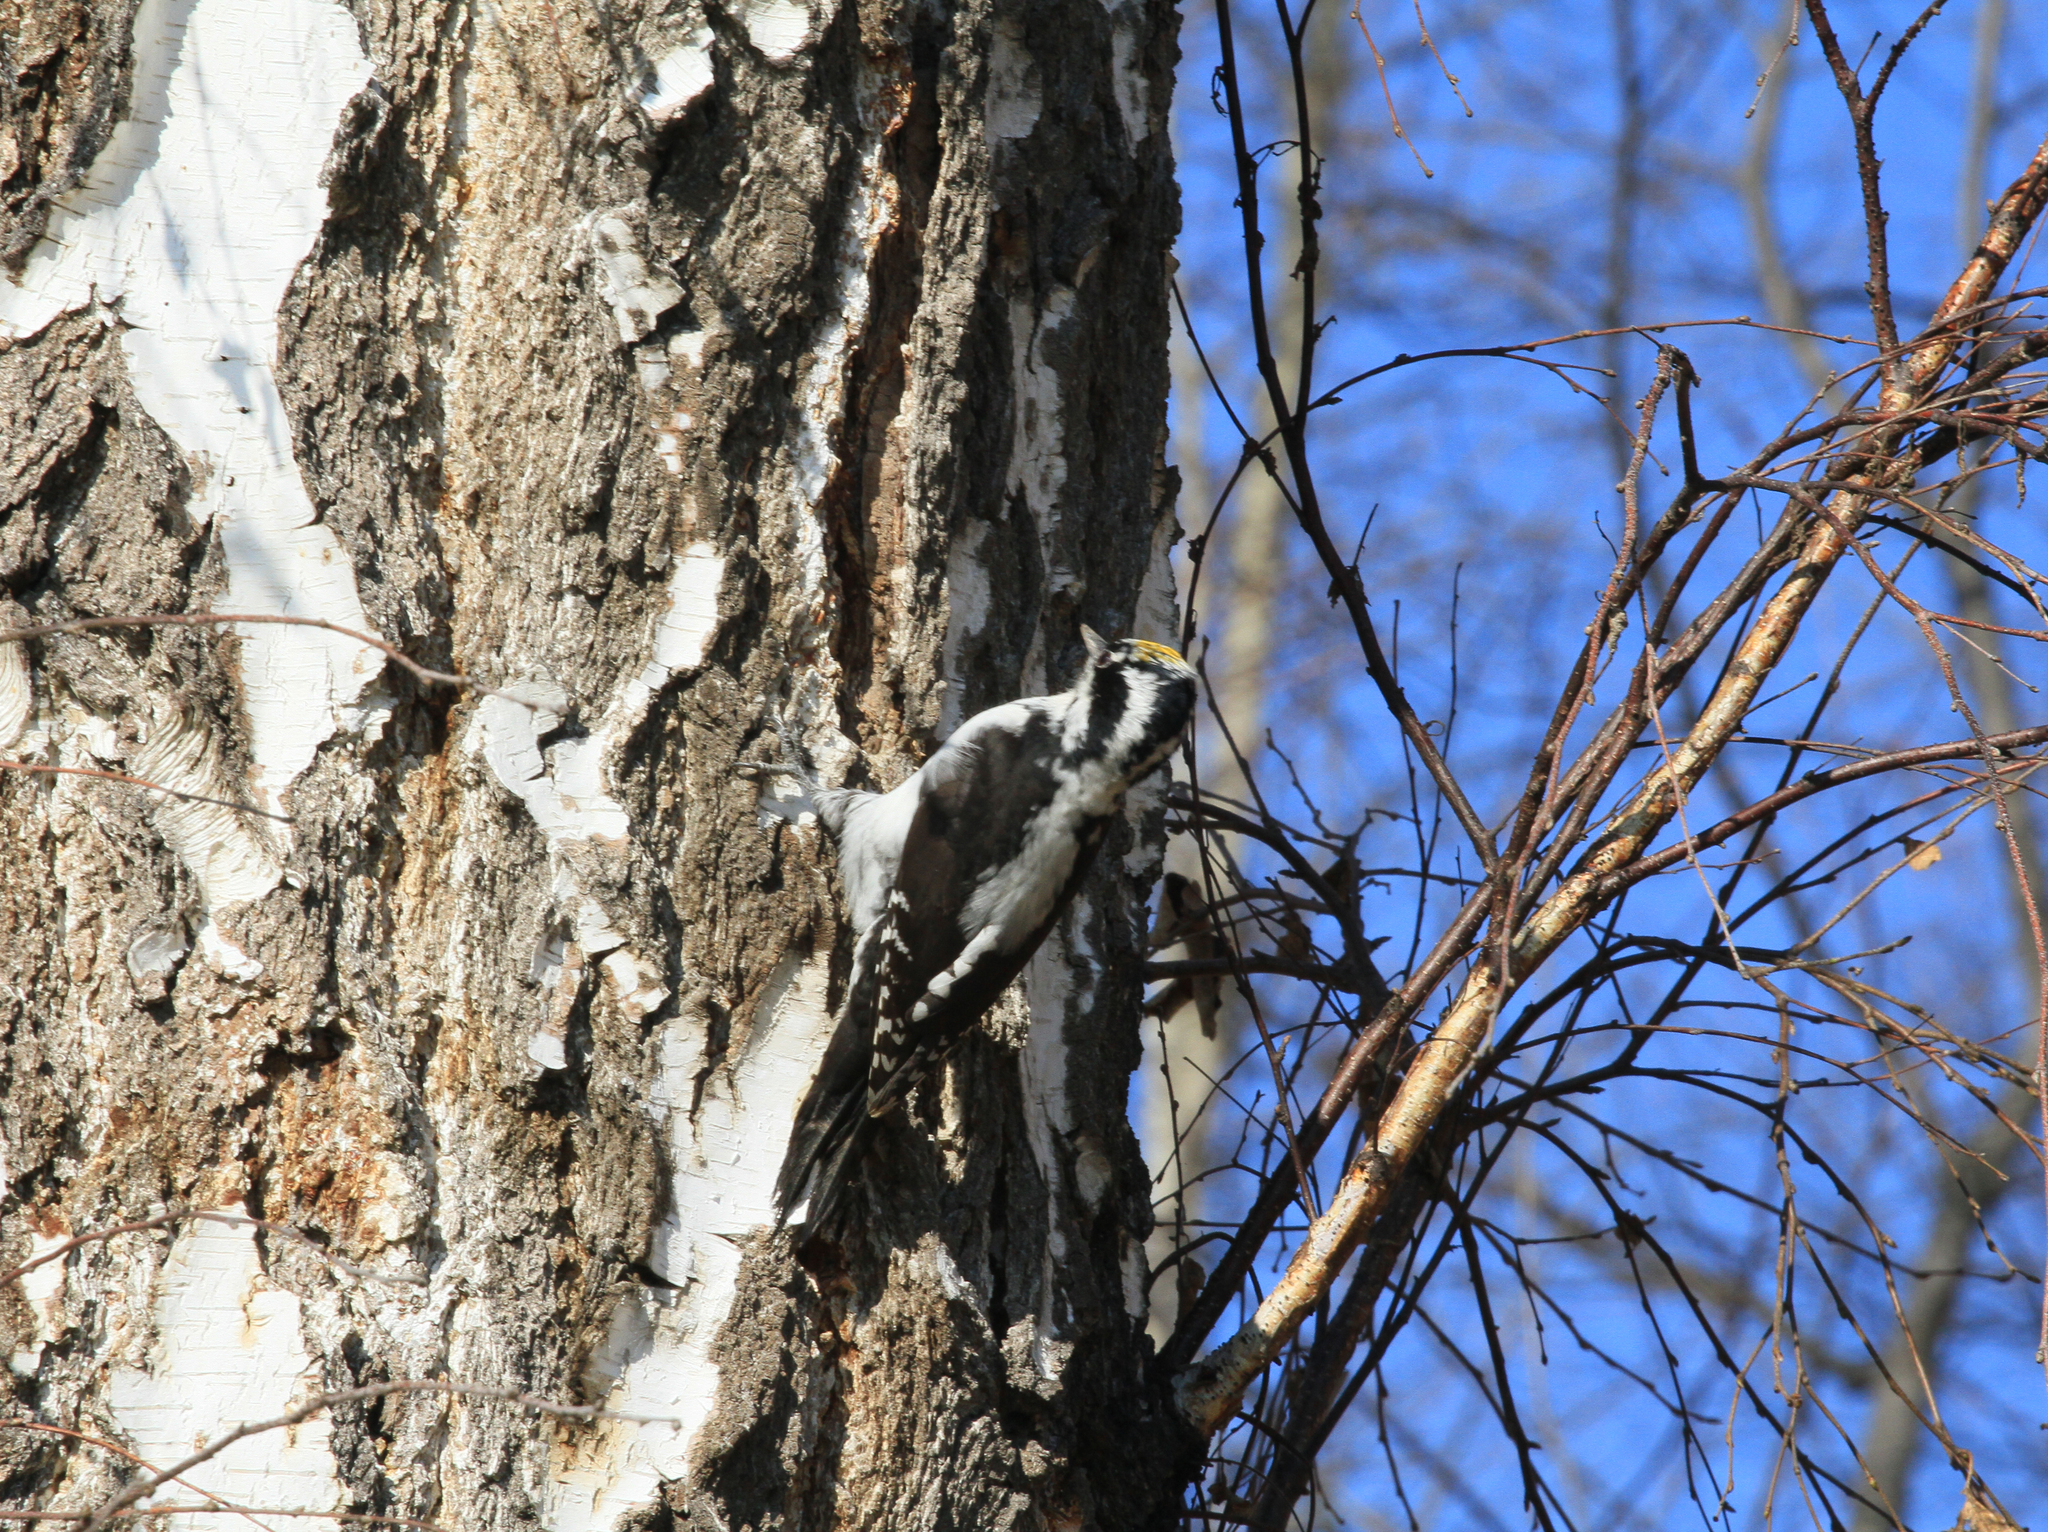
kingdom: Animalia
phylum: Chordata
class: Aves
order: Piciformes
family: Picidae
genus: Picoides
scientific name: Picoides tridactylus
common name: Eurasian three-toed woodpecker
